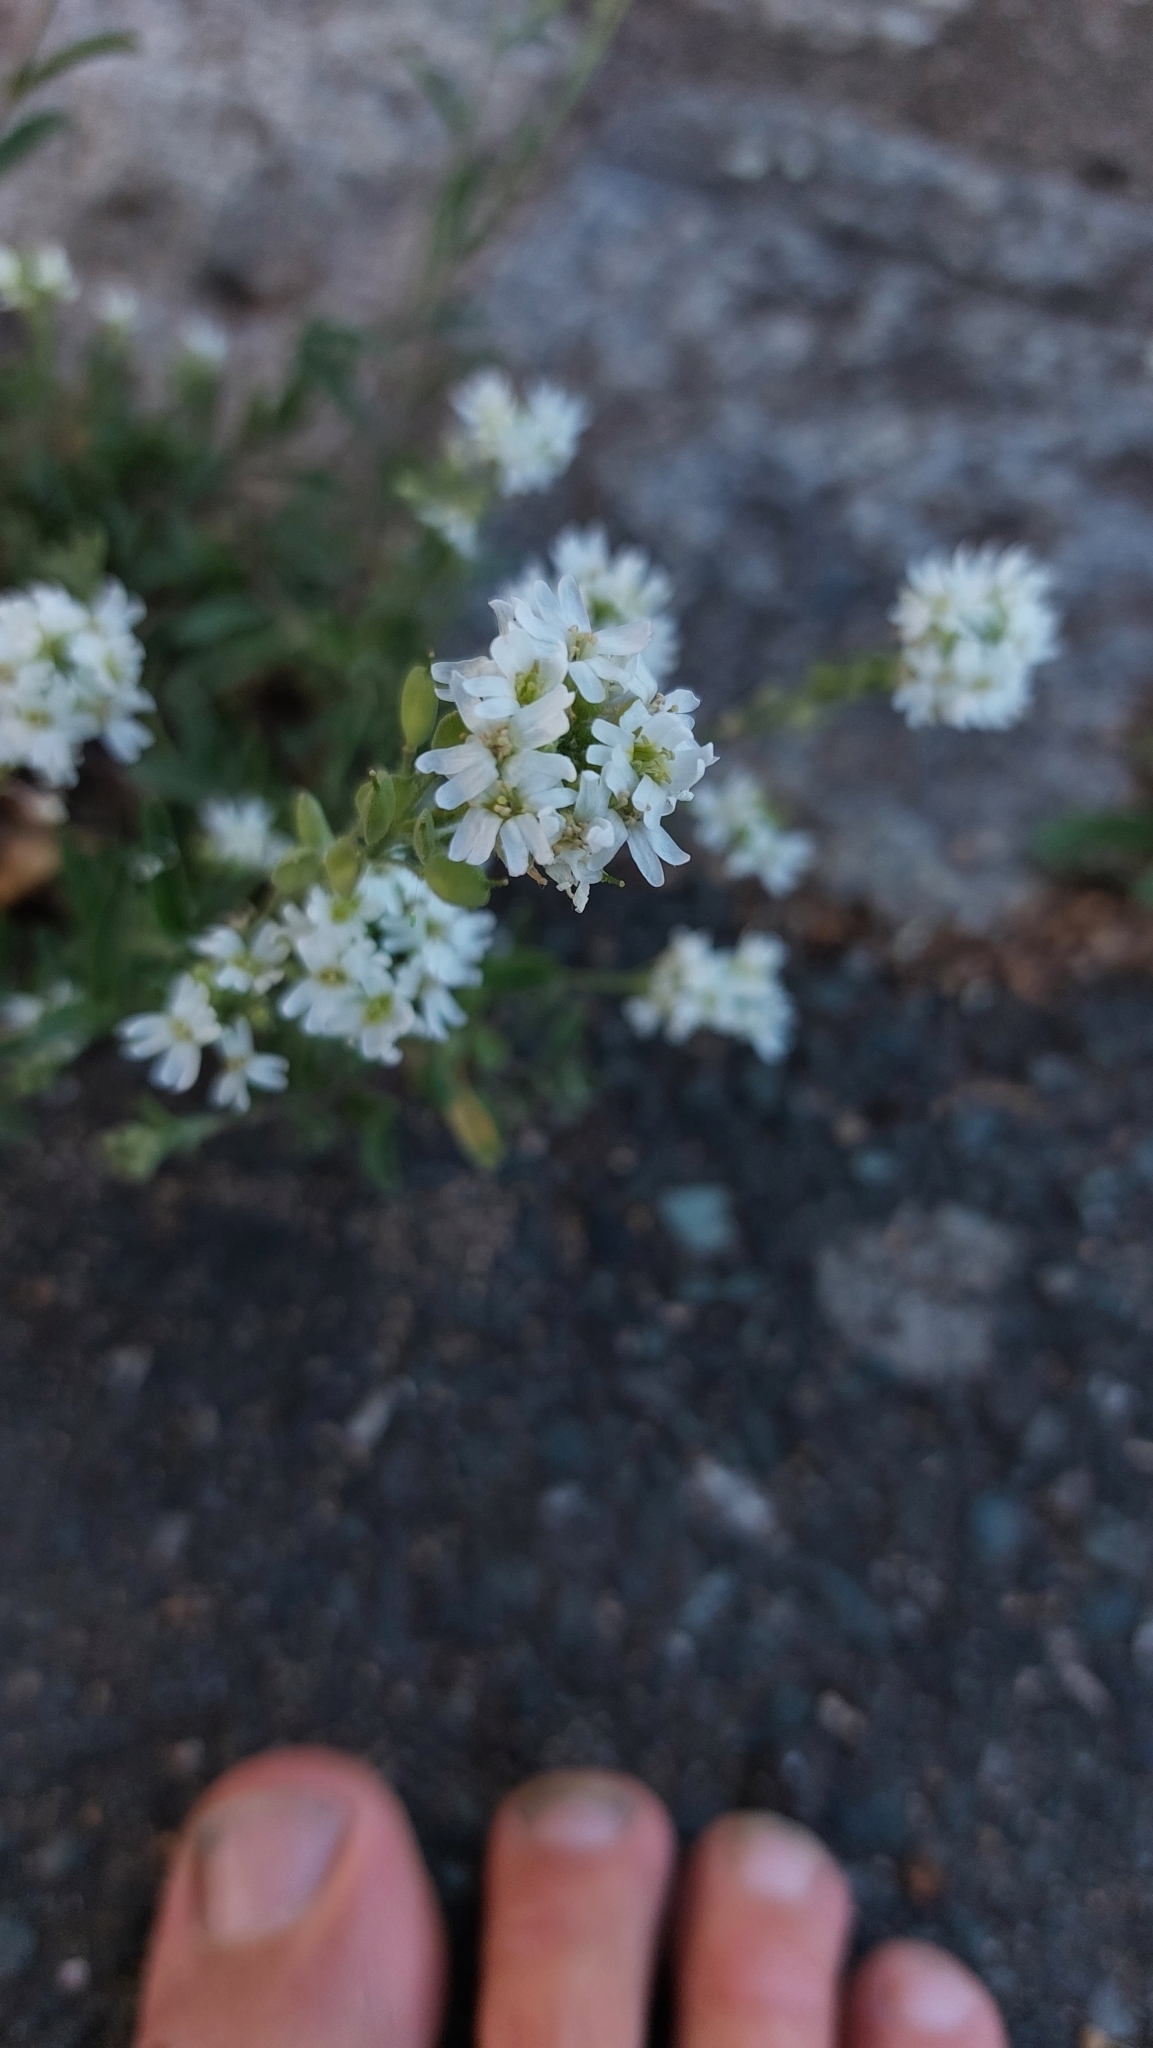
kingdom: Plantae
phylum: Tracheophyta
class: Magnoliopsida
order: Brassicales
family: Brassicaceae
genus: Berteroa
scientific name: Berteroa incana
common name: Hoary alison
